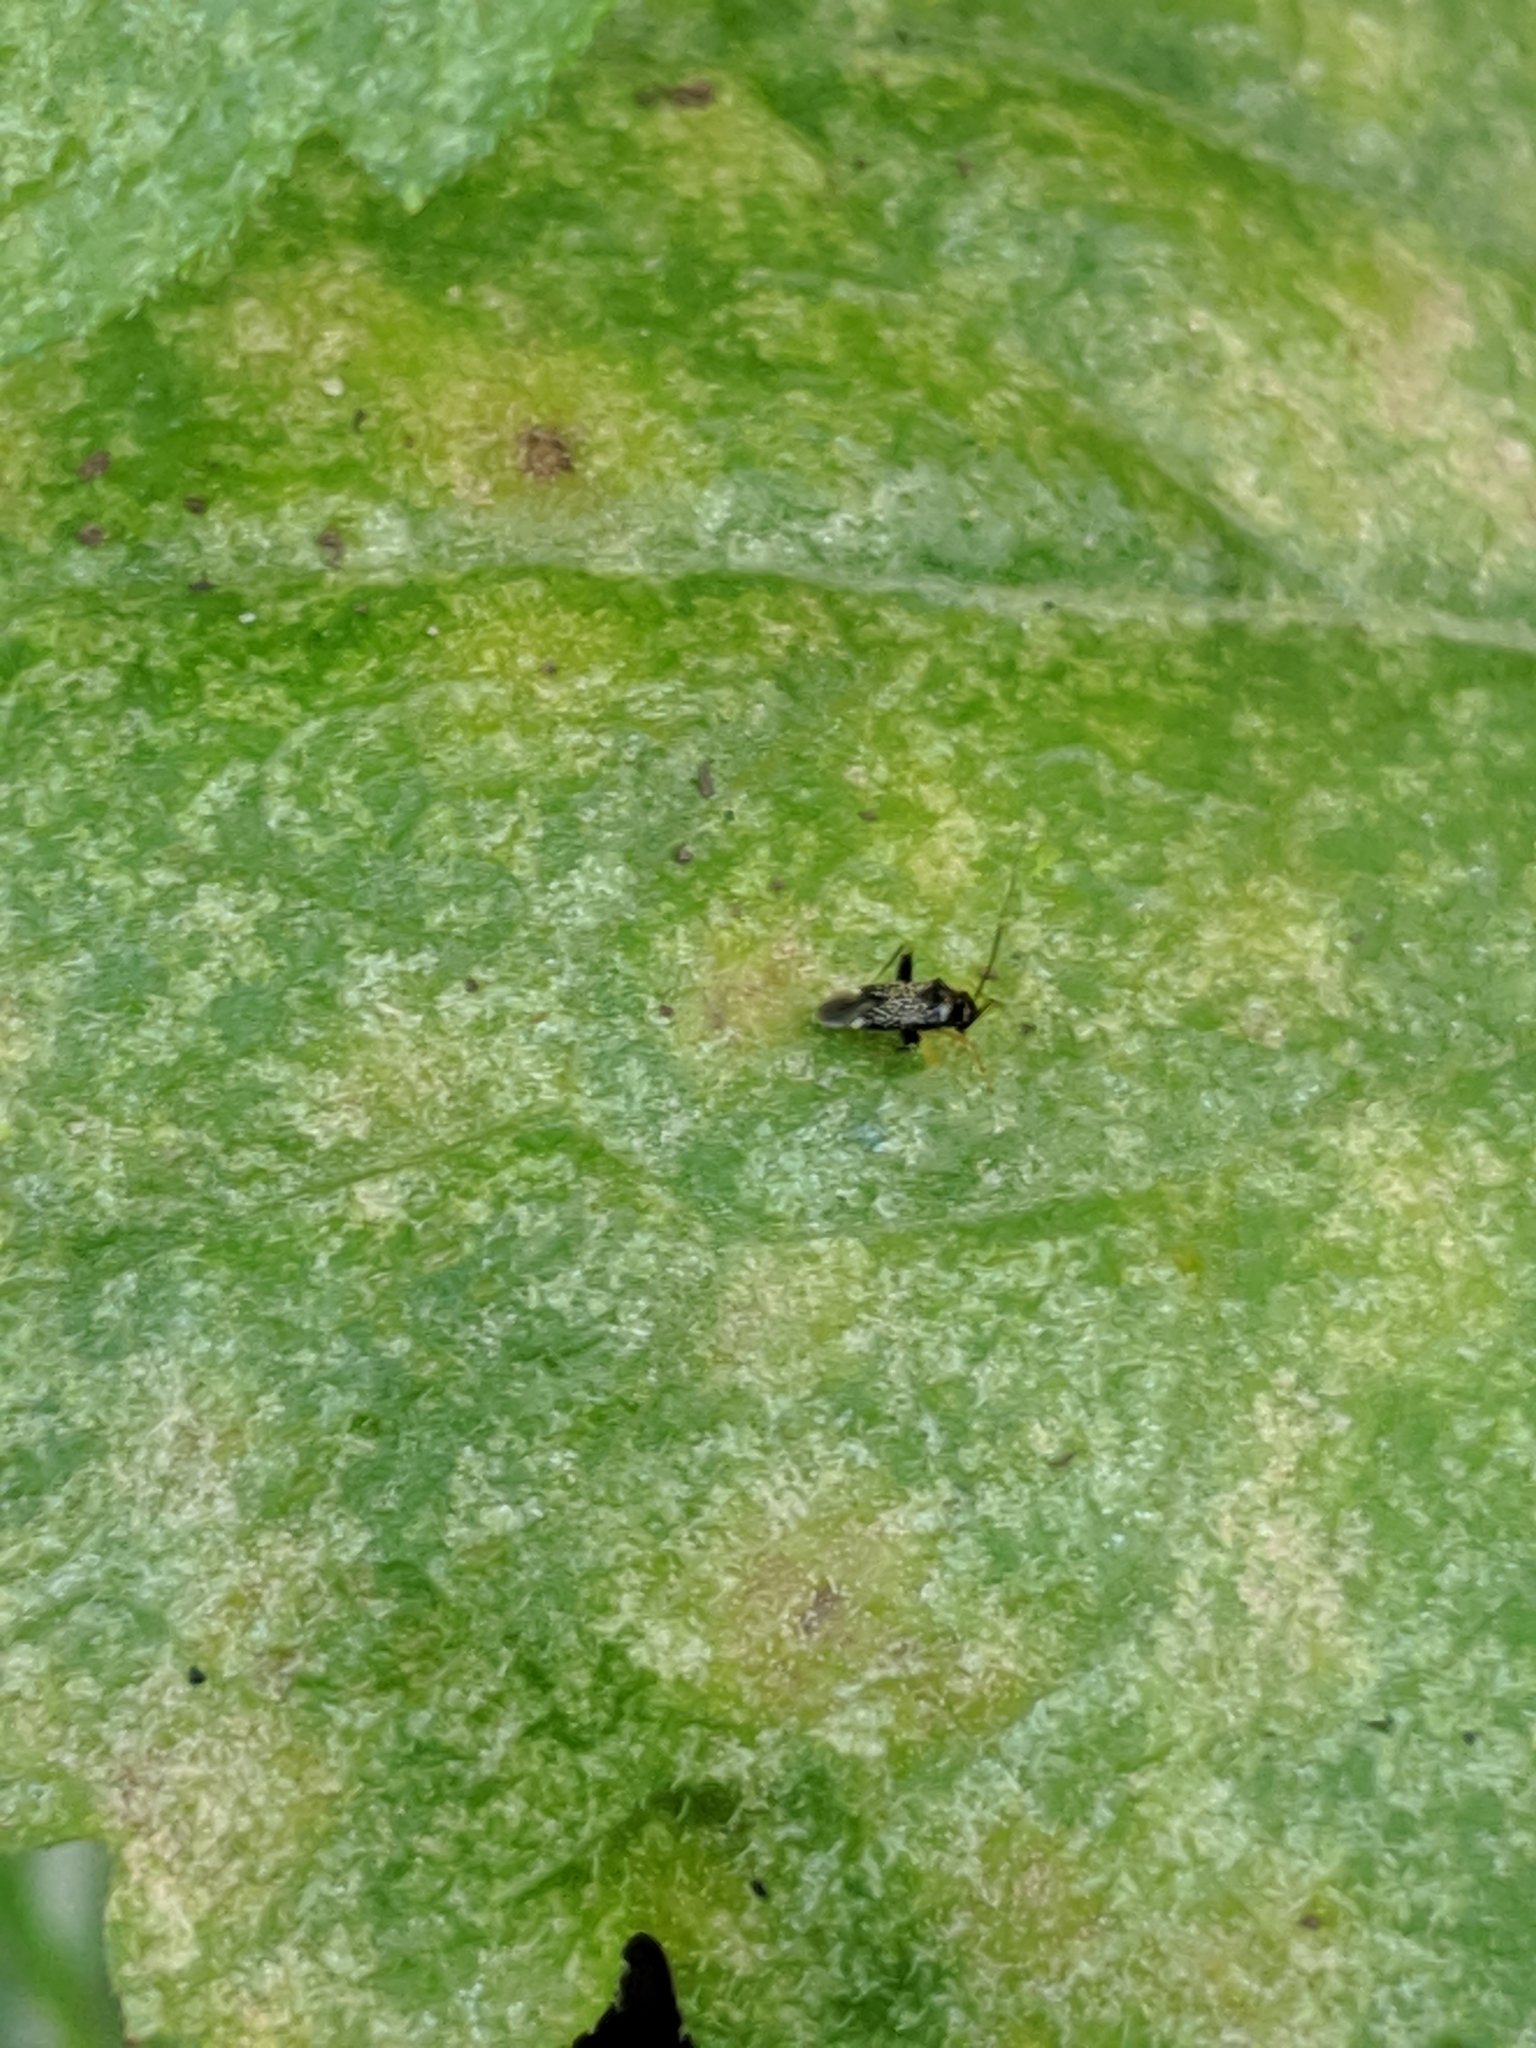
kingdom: Animalia
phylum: Arthropoda
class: Insecta
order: Hemiptera
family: Miridae
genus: Microtechnites
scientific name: Microtechnites bractatus
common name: Garden fleahopper
